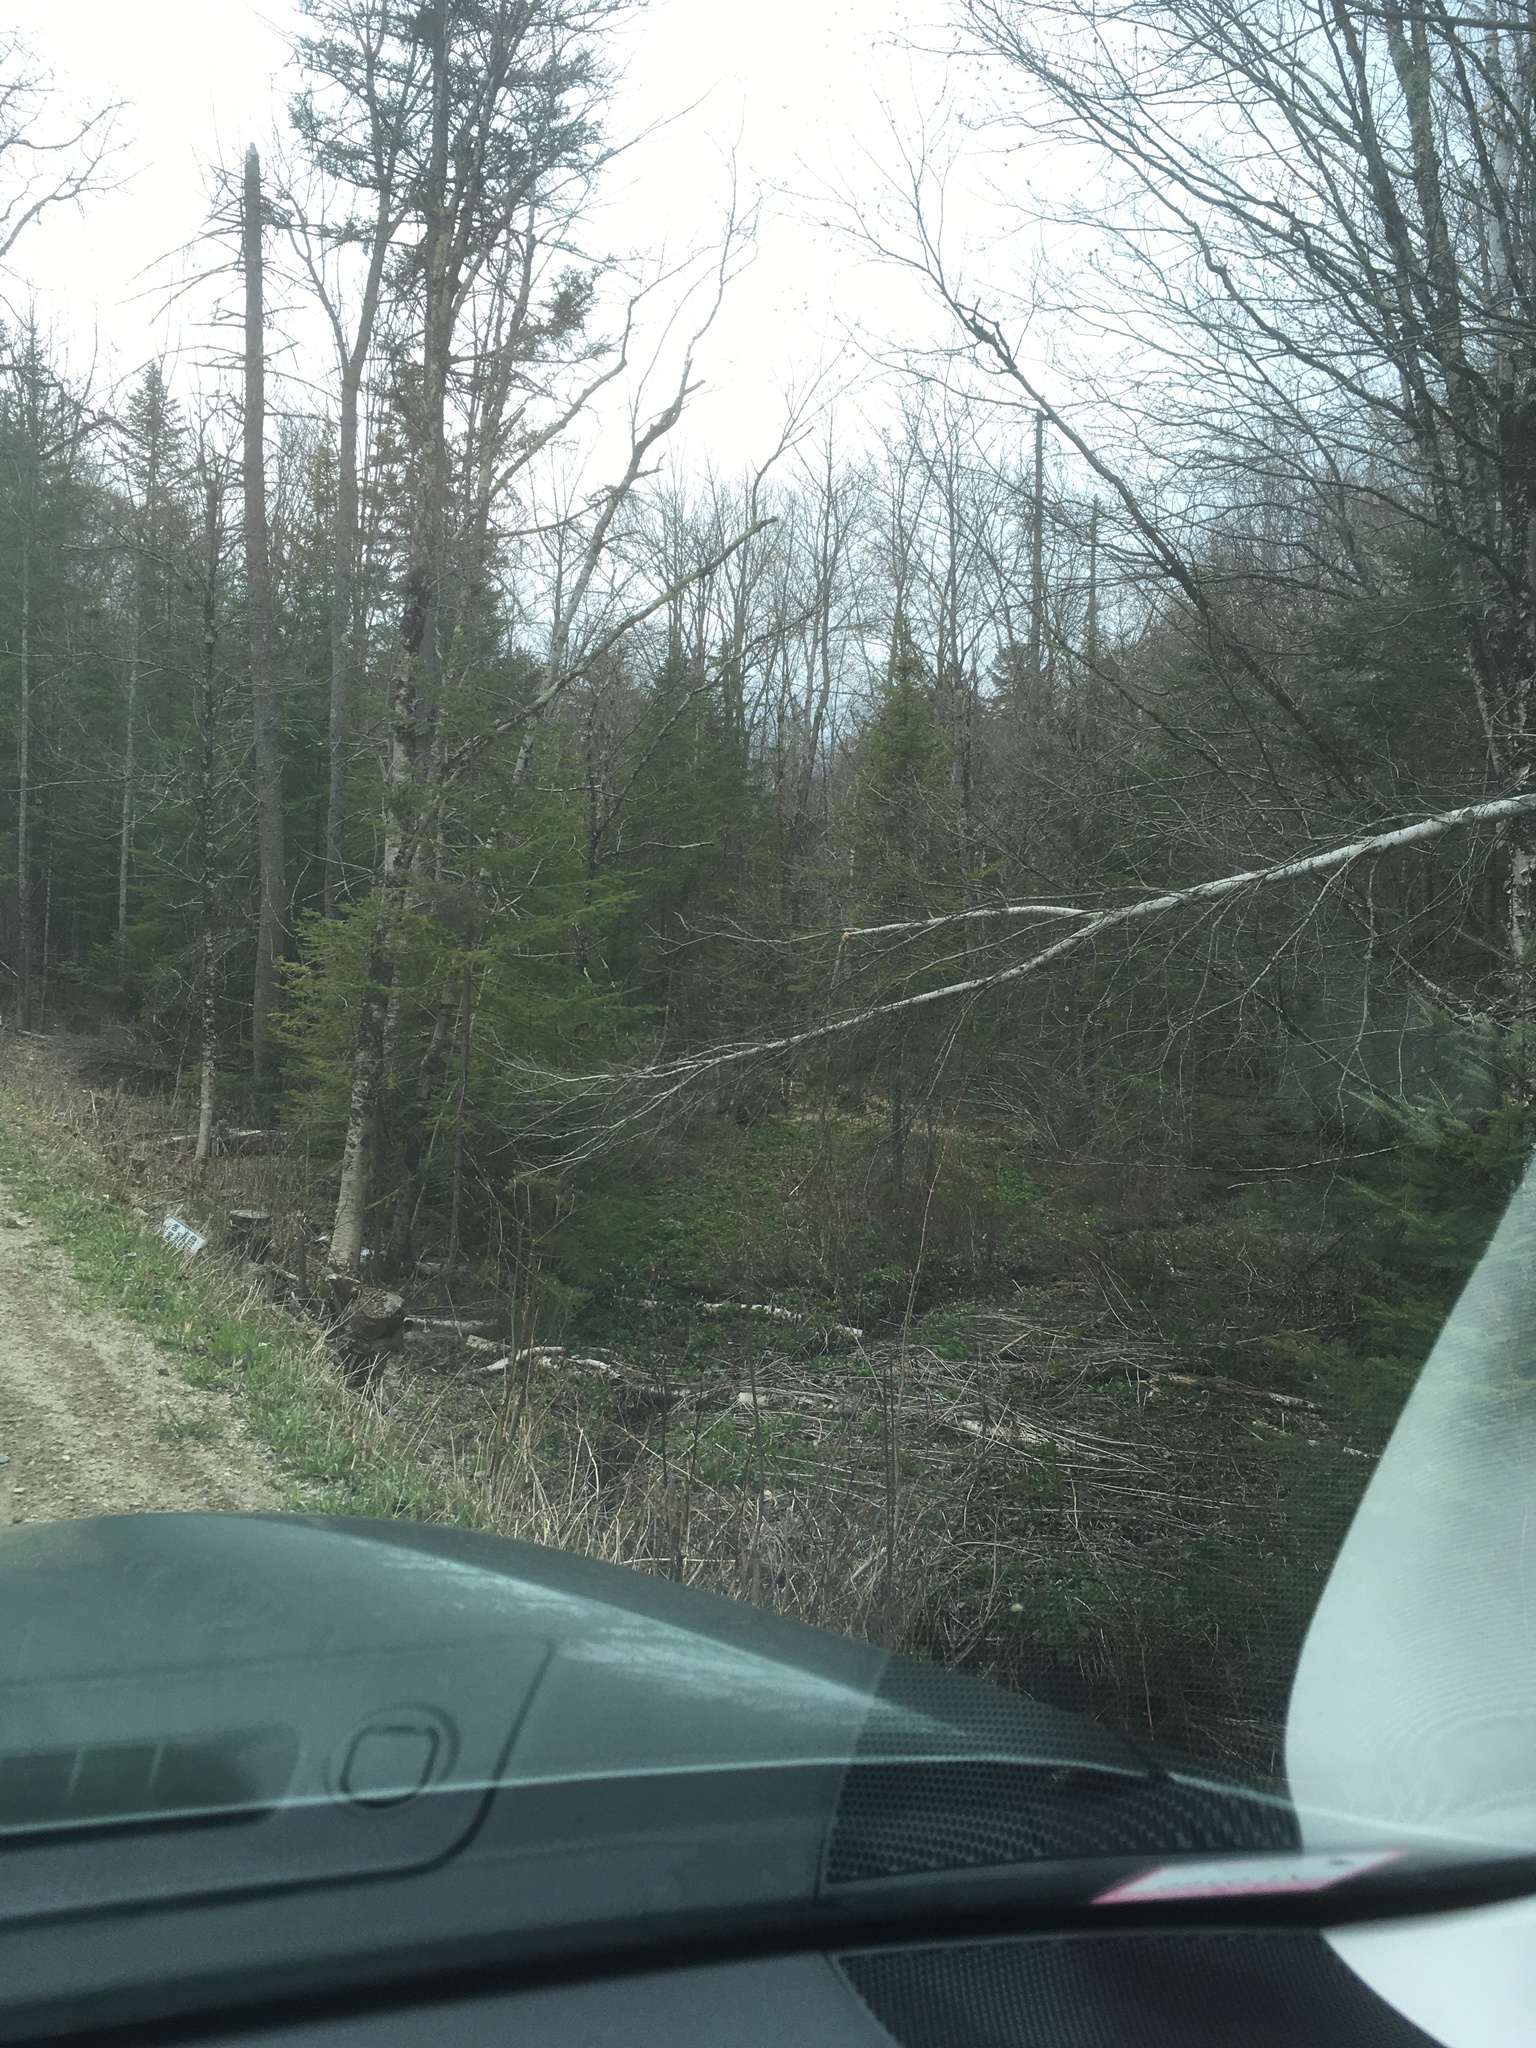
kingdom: Plantae
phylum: Tracheophyta
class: Magnoliopsida
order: Ranunculales
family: Ranunculaceae
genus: Caltha
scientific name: Caltha palustris
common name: Marsh marigold
